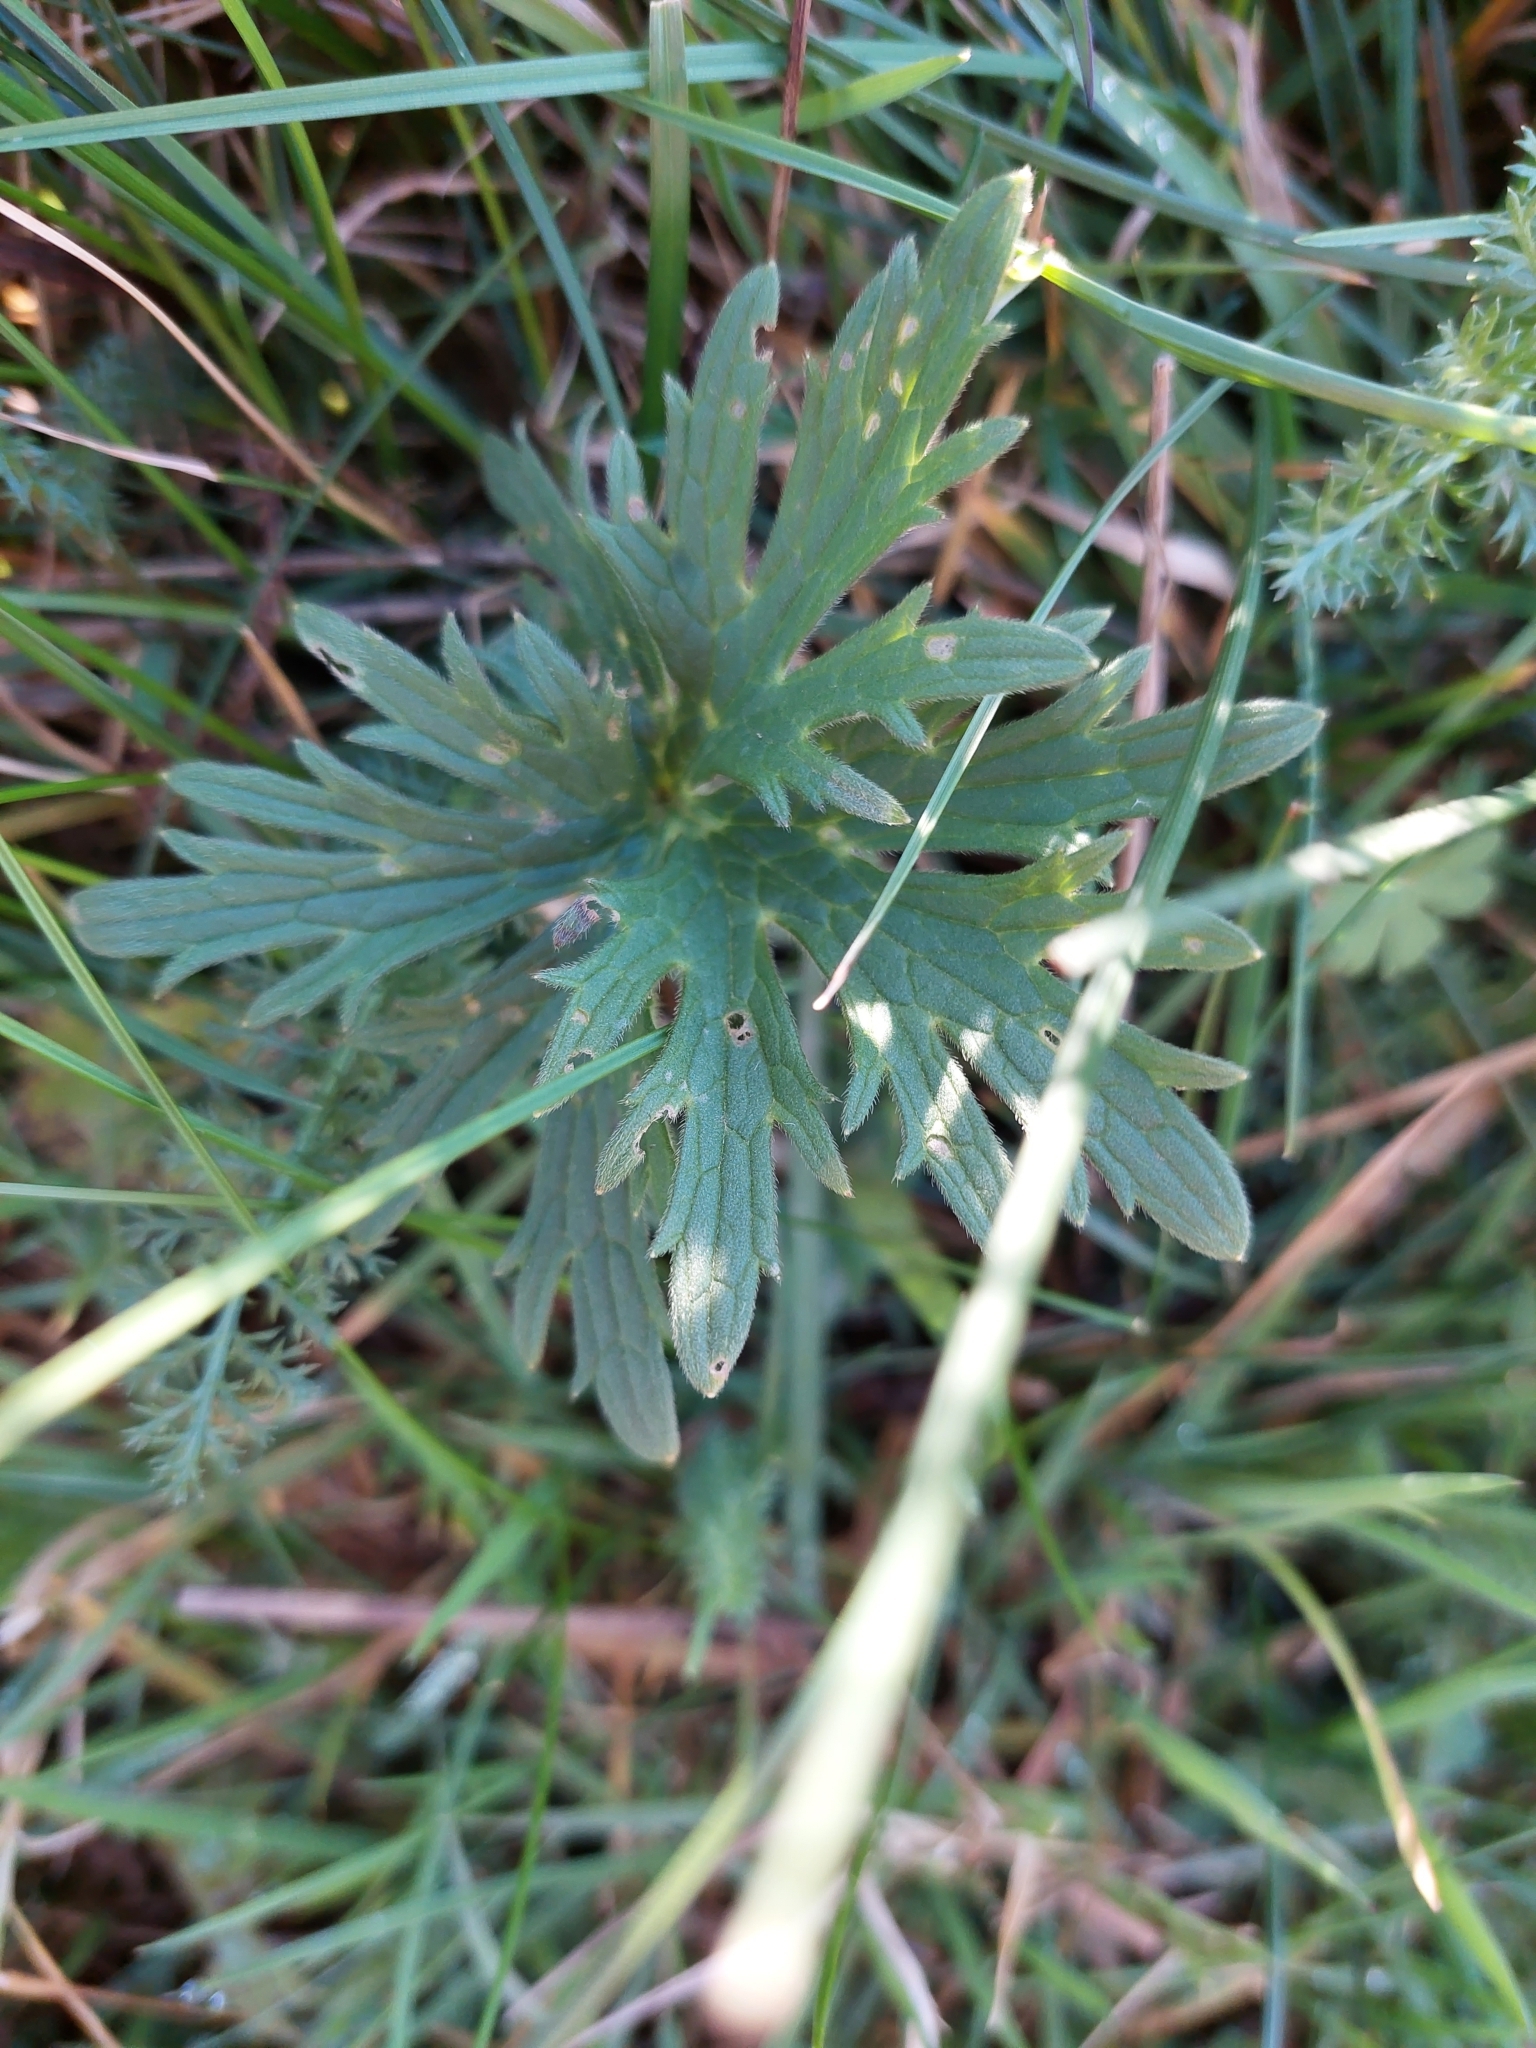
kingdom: Plantae
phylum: Tracheophyta
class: Magnoliopsida
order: Ranunculales
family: Ranunculaceae
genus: Ranunculus
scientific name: Ranunculus acris
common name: Meadow buttercup
